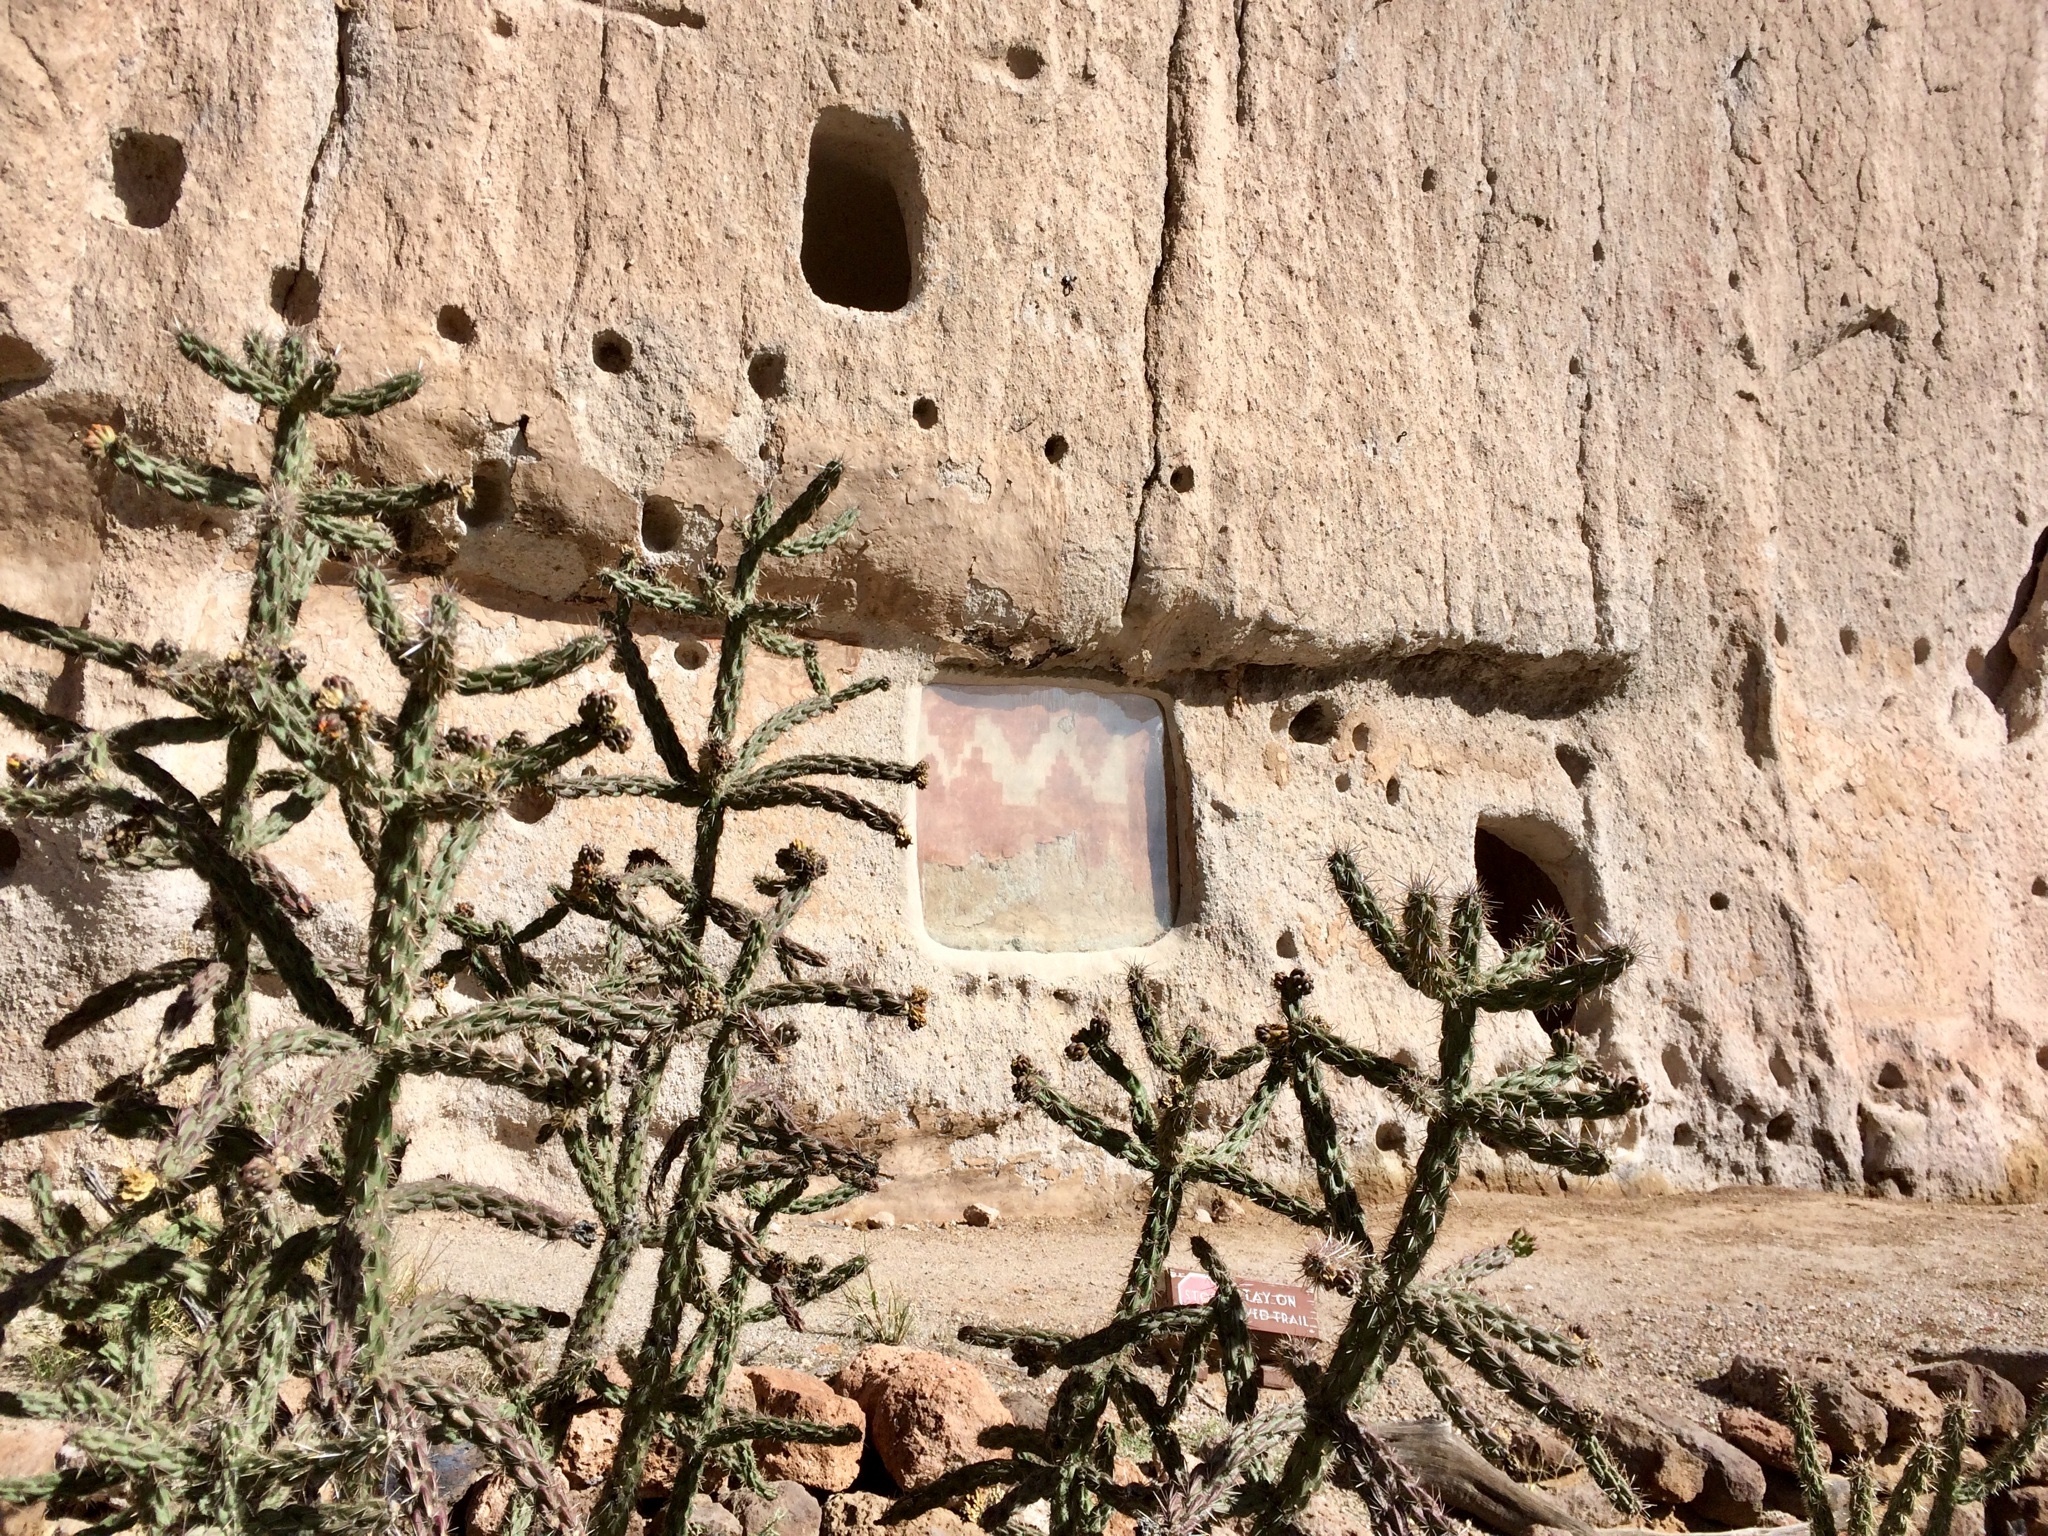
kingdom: Plantae
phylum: Tracheophyta
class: Magnoliopsida
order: Caryophyllales
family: Cactaceae
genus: Cylindropuntia
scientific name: Cylindropuntia imbricata
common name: Candelabrum cactus
